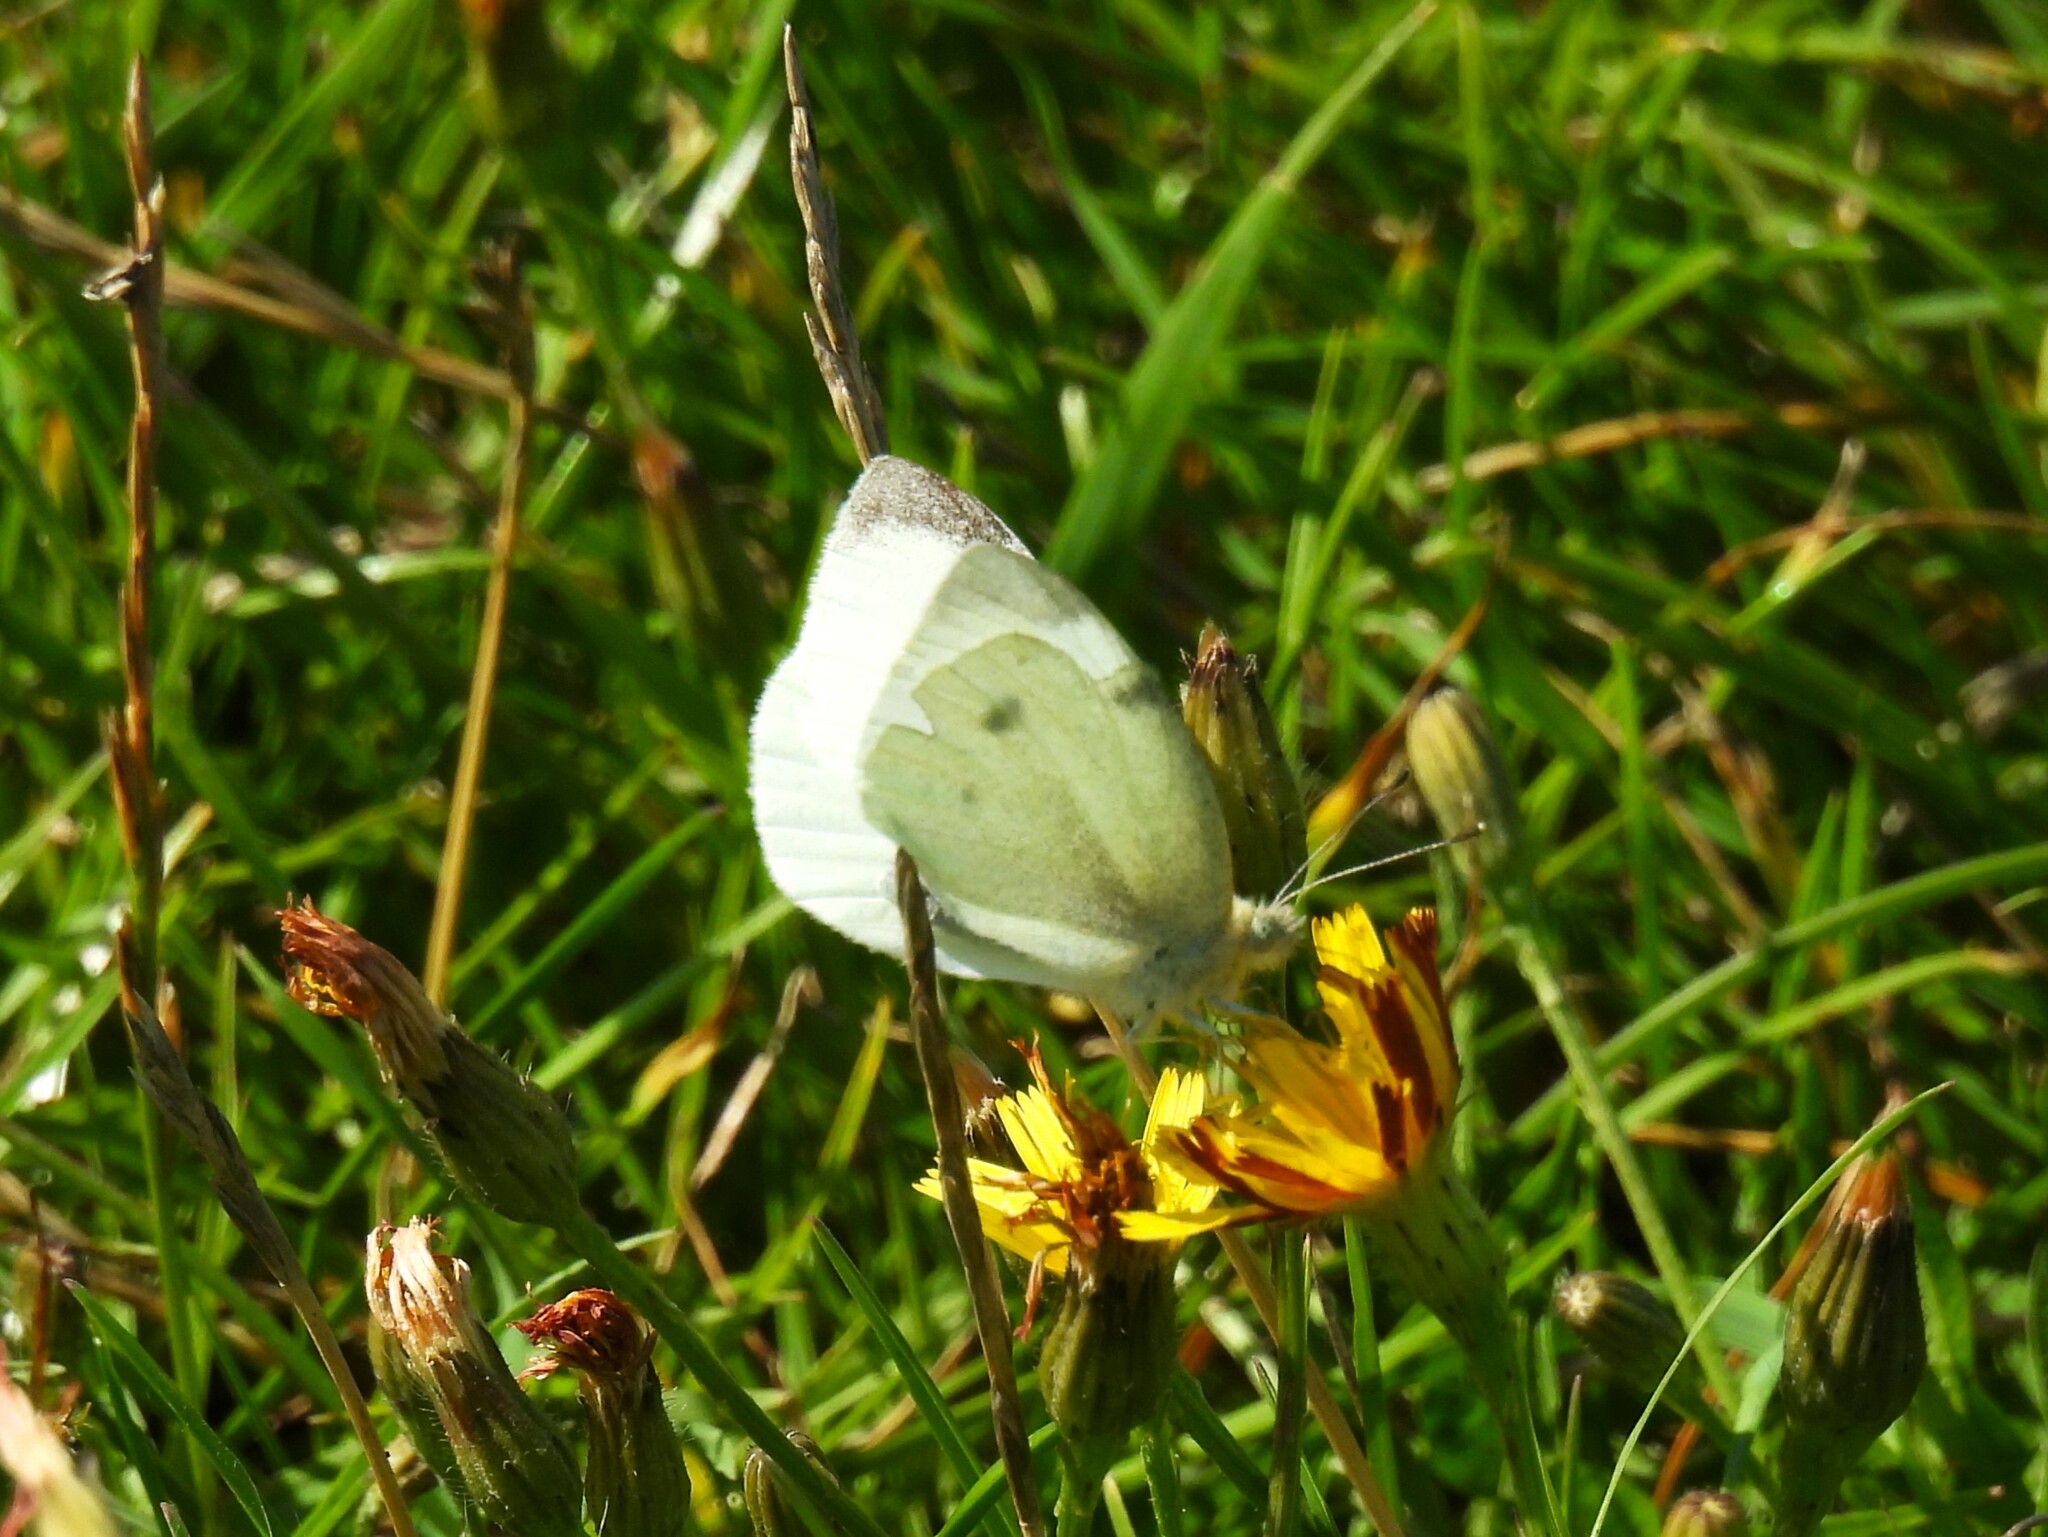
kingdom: Animalia
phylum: Arthropoda
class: Insecta
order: Lepidoptera
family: Pieridae
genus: Pieris
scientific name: Pieris rapae
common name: Small white
